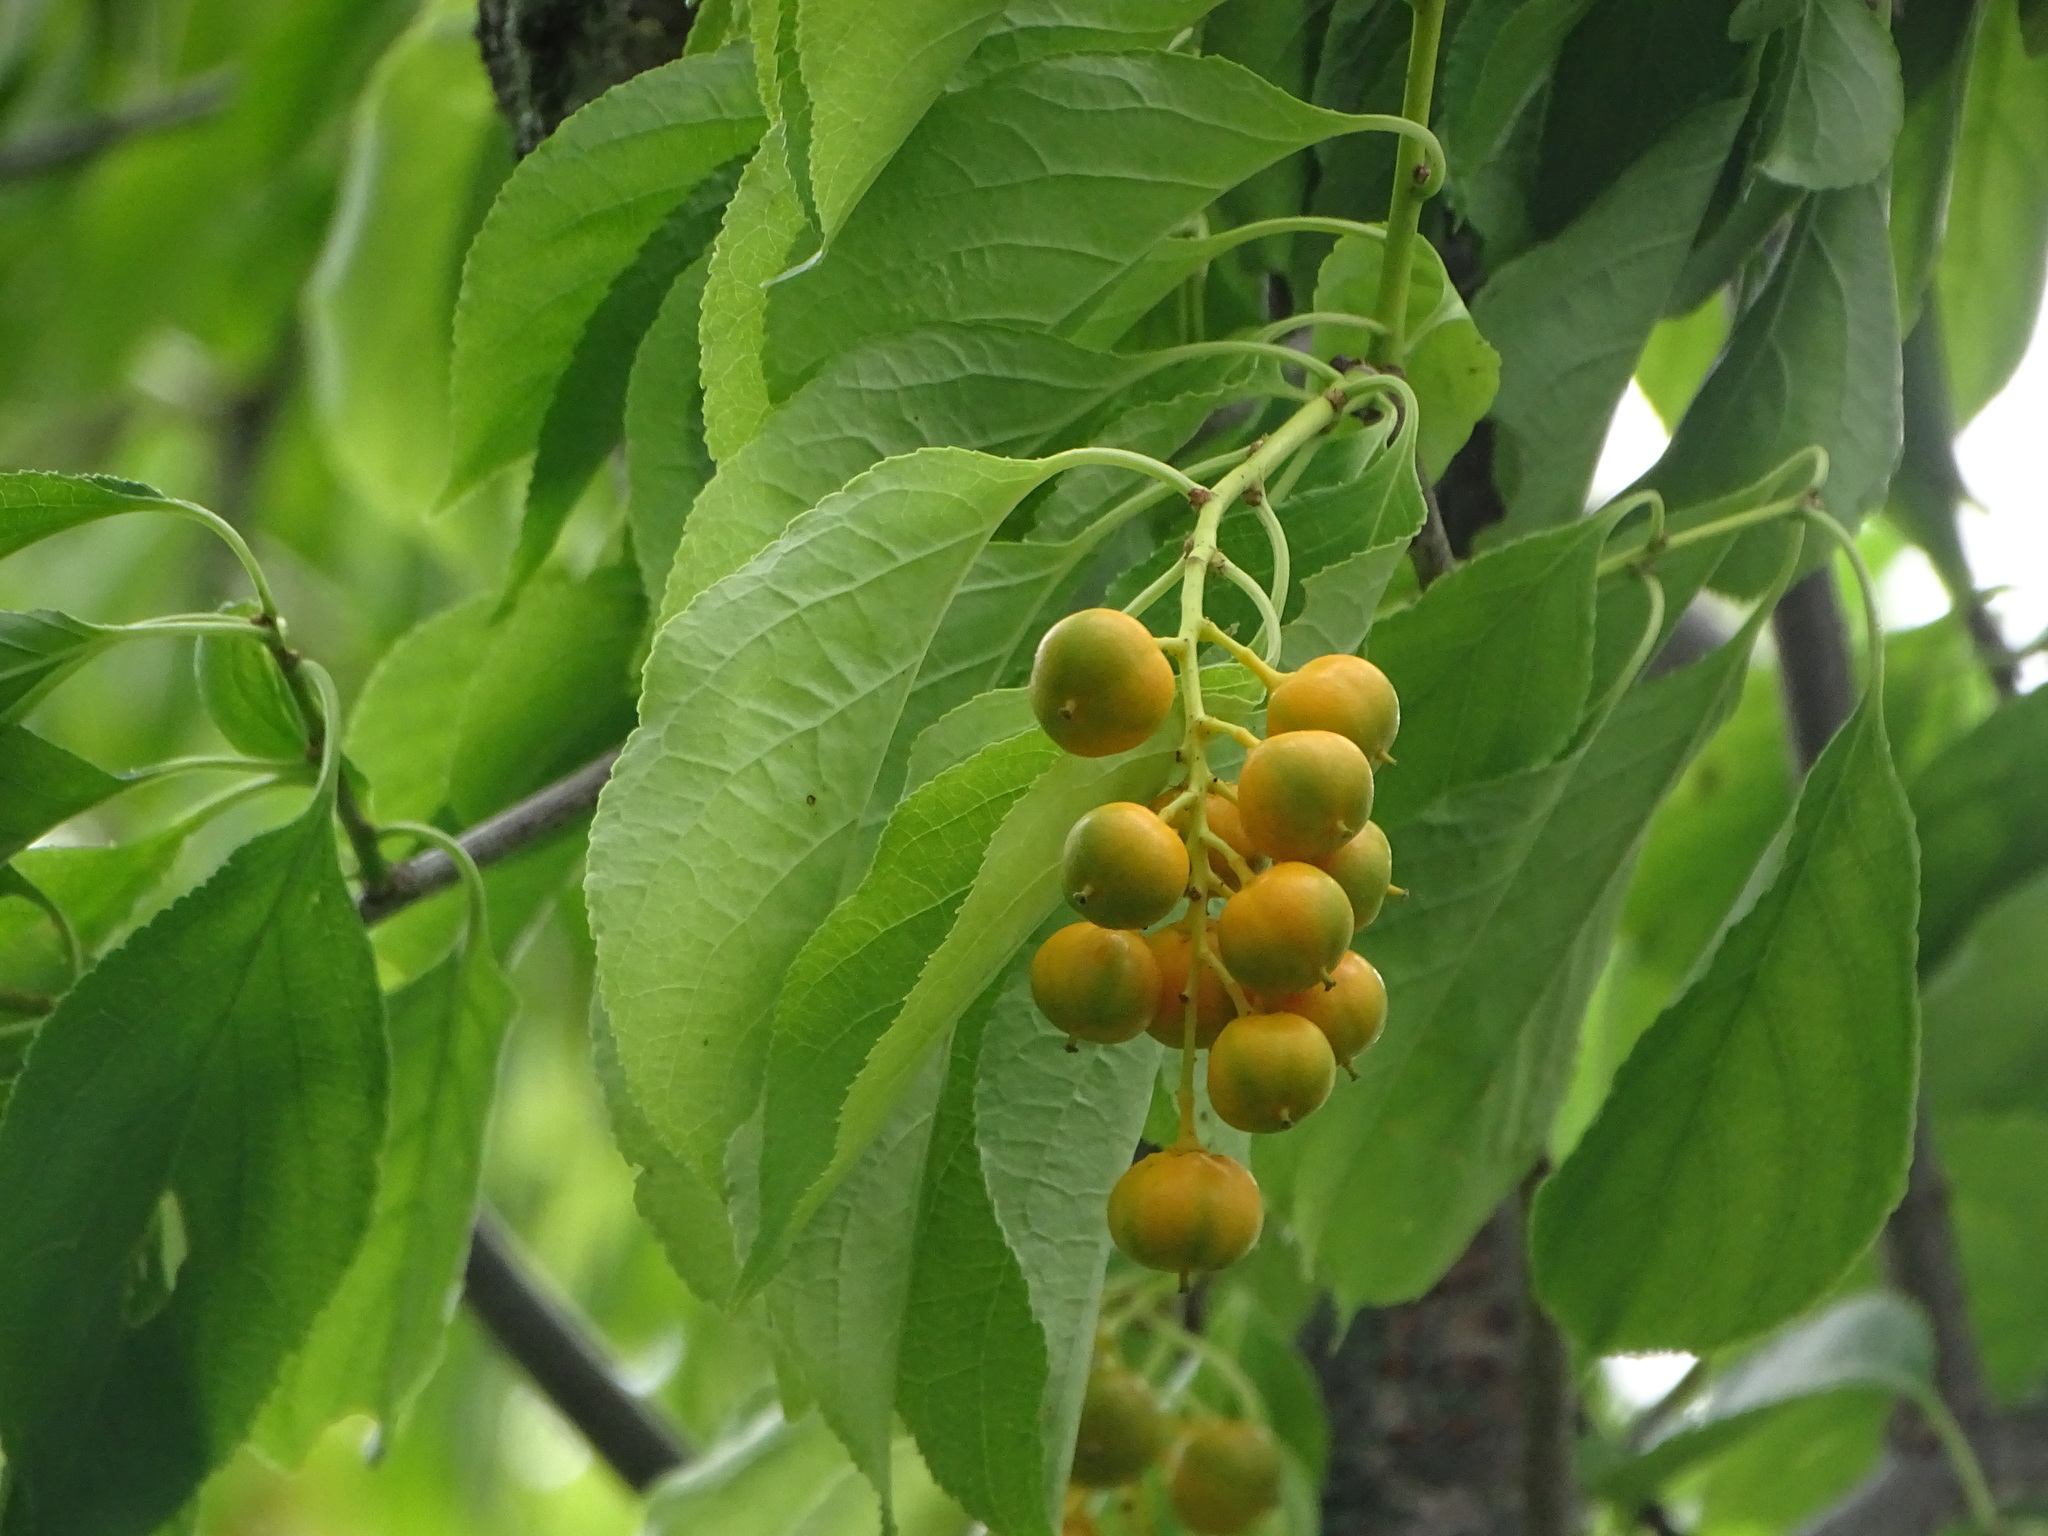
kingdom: Plantae
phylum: Tracheophyta
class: Magnoliopsida
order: Celastrales
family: Celastraceae
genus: Celastrus
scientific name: Celastrus scandens
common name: American bittersweet
